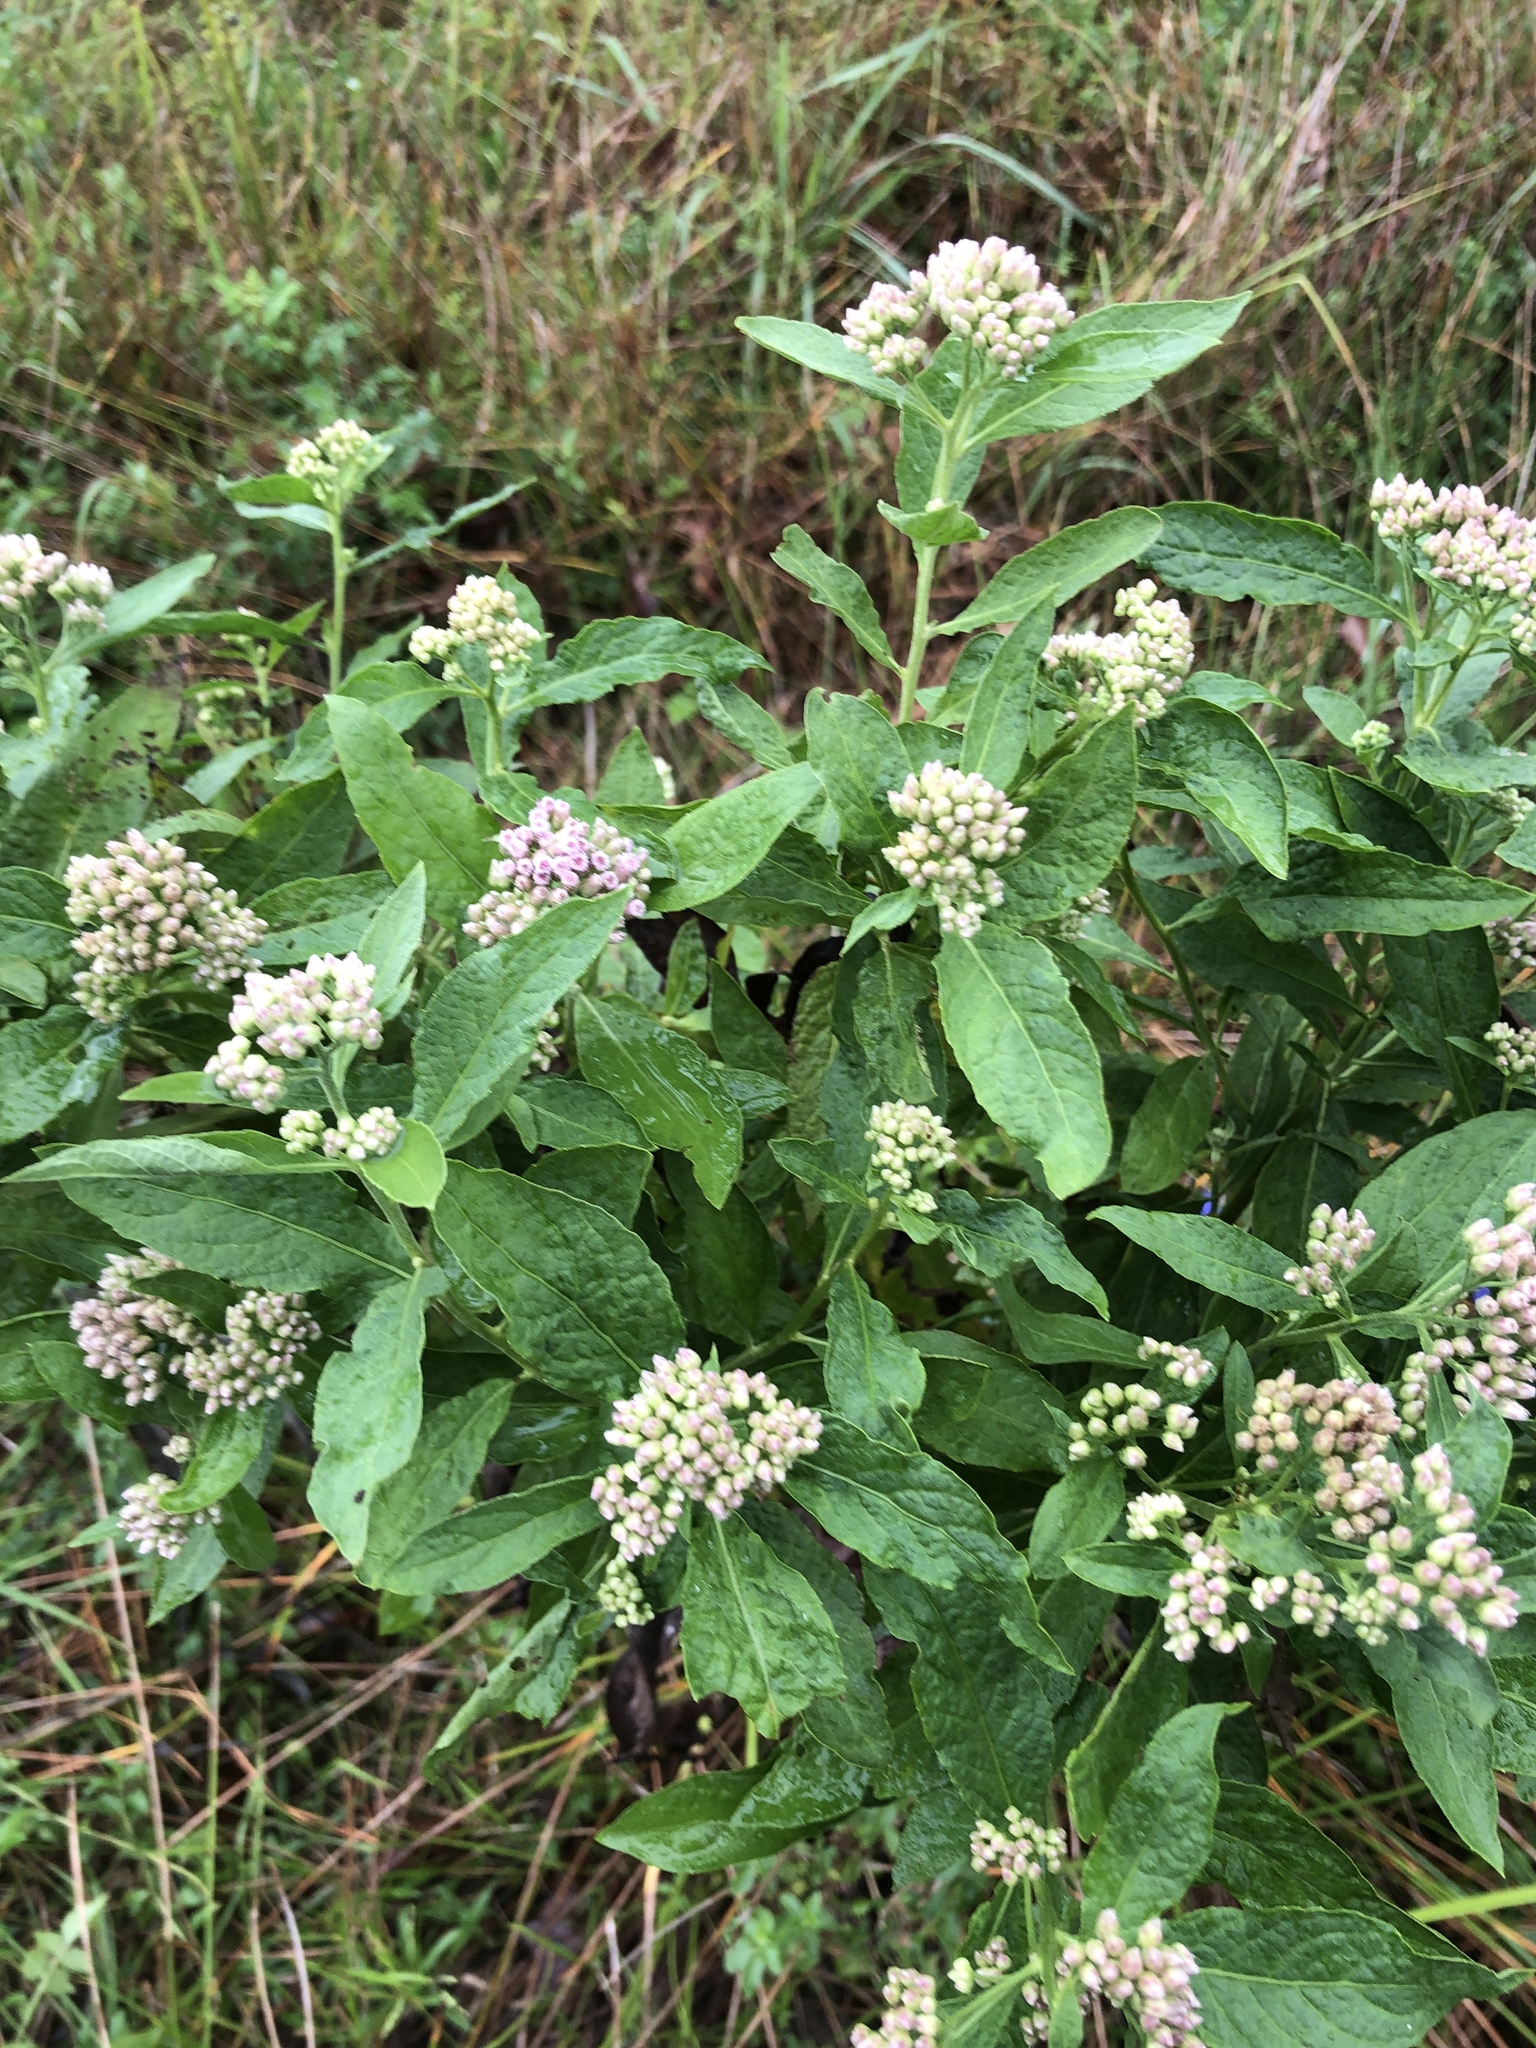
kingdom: Plantae
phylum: Tracheophyta
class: Magnoliopsida
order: Asterales
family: Asteraceae
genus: Pluchea
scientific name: Pluchea camphorata
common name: Camphor pluchea
